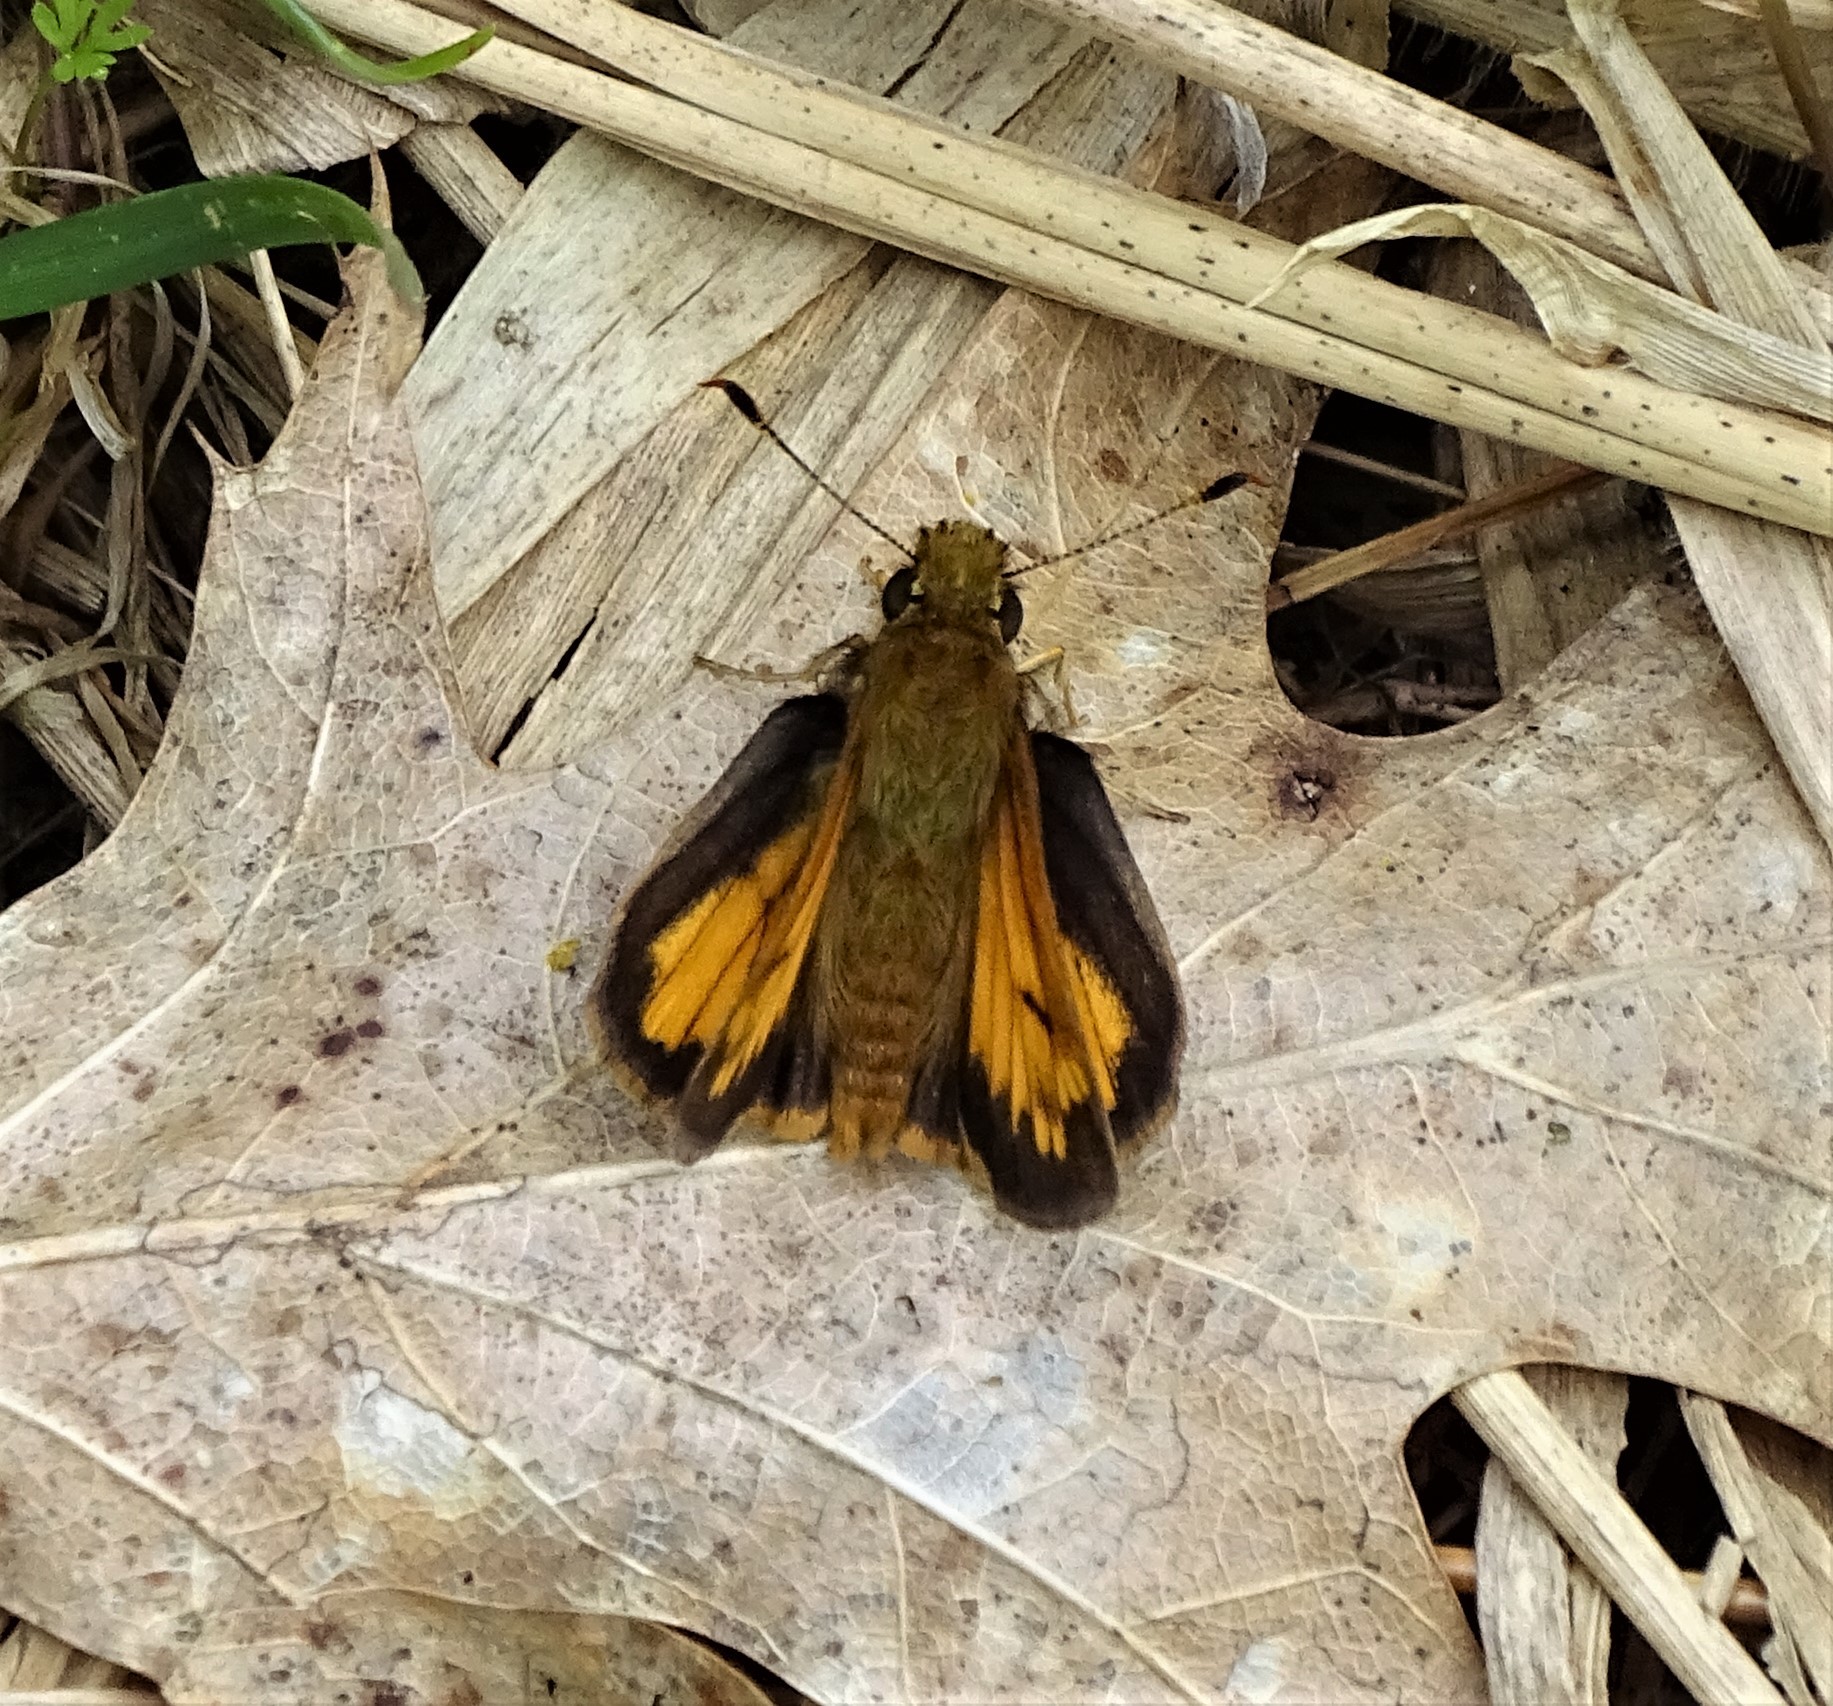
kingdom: Animalia
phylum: Arthropoda
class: Insecta
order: Lepidoptera
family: Hesperiidae
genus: Lon
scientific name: Lon hobomok
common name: Hobomok skipper
